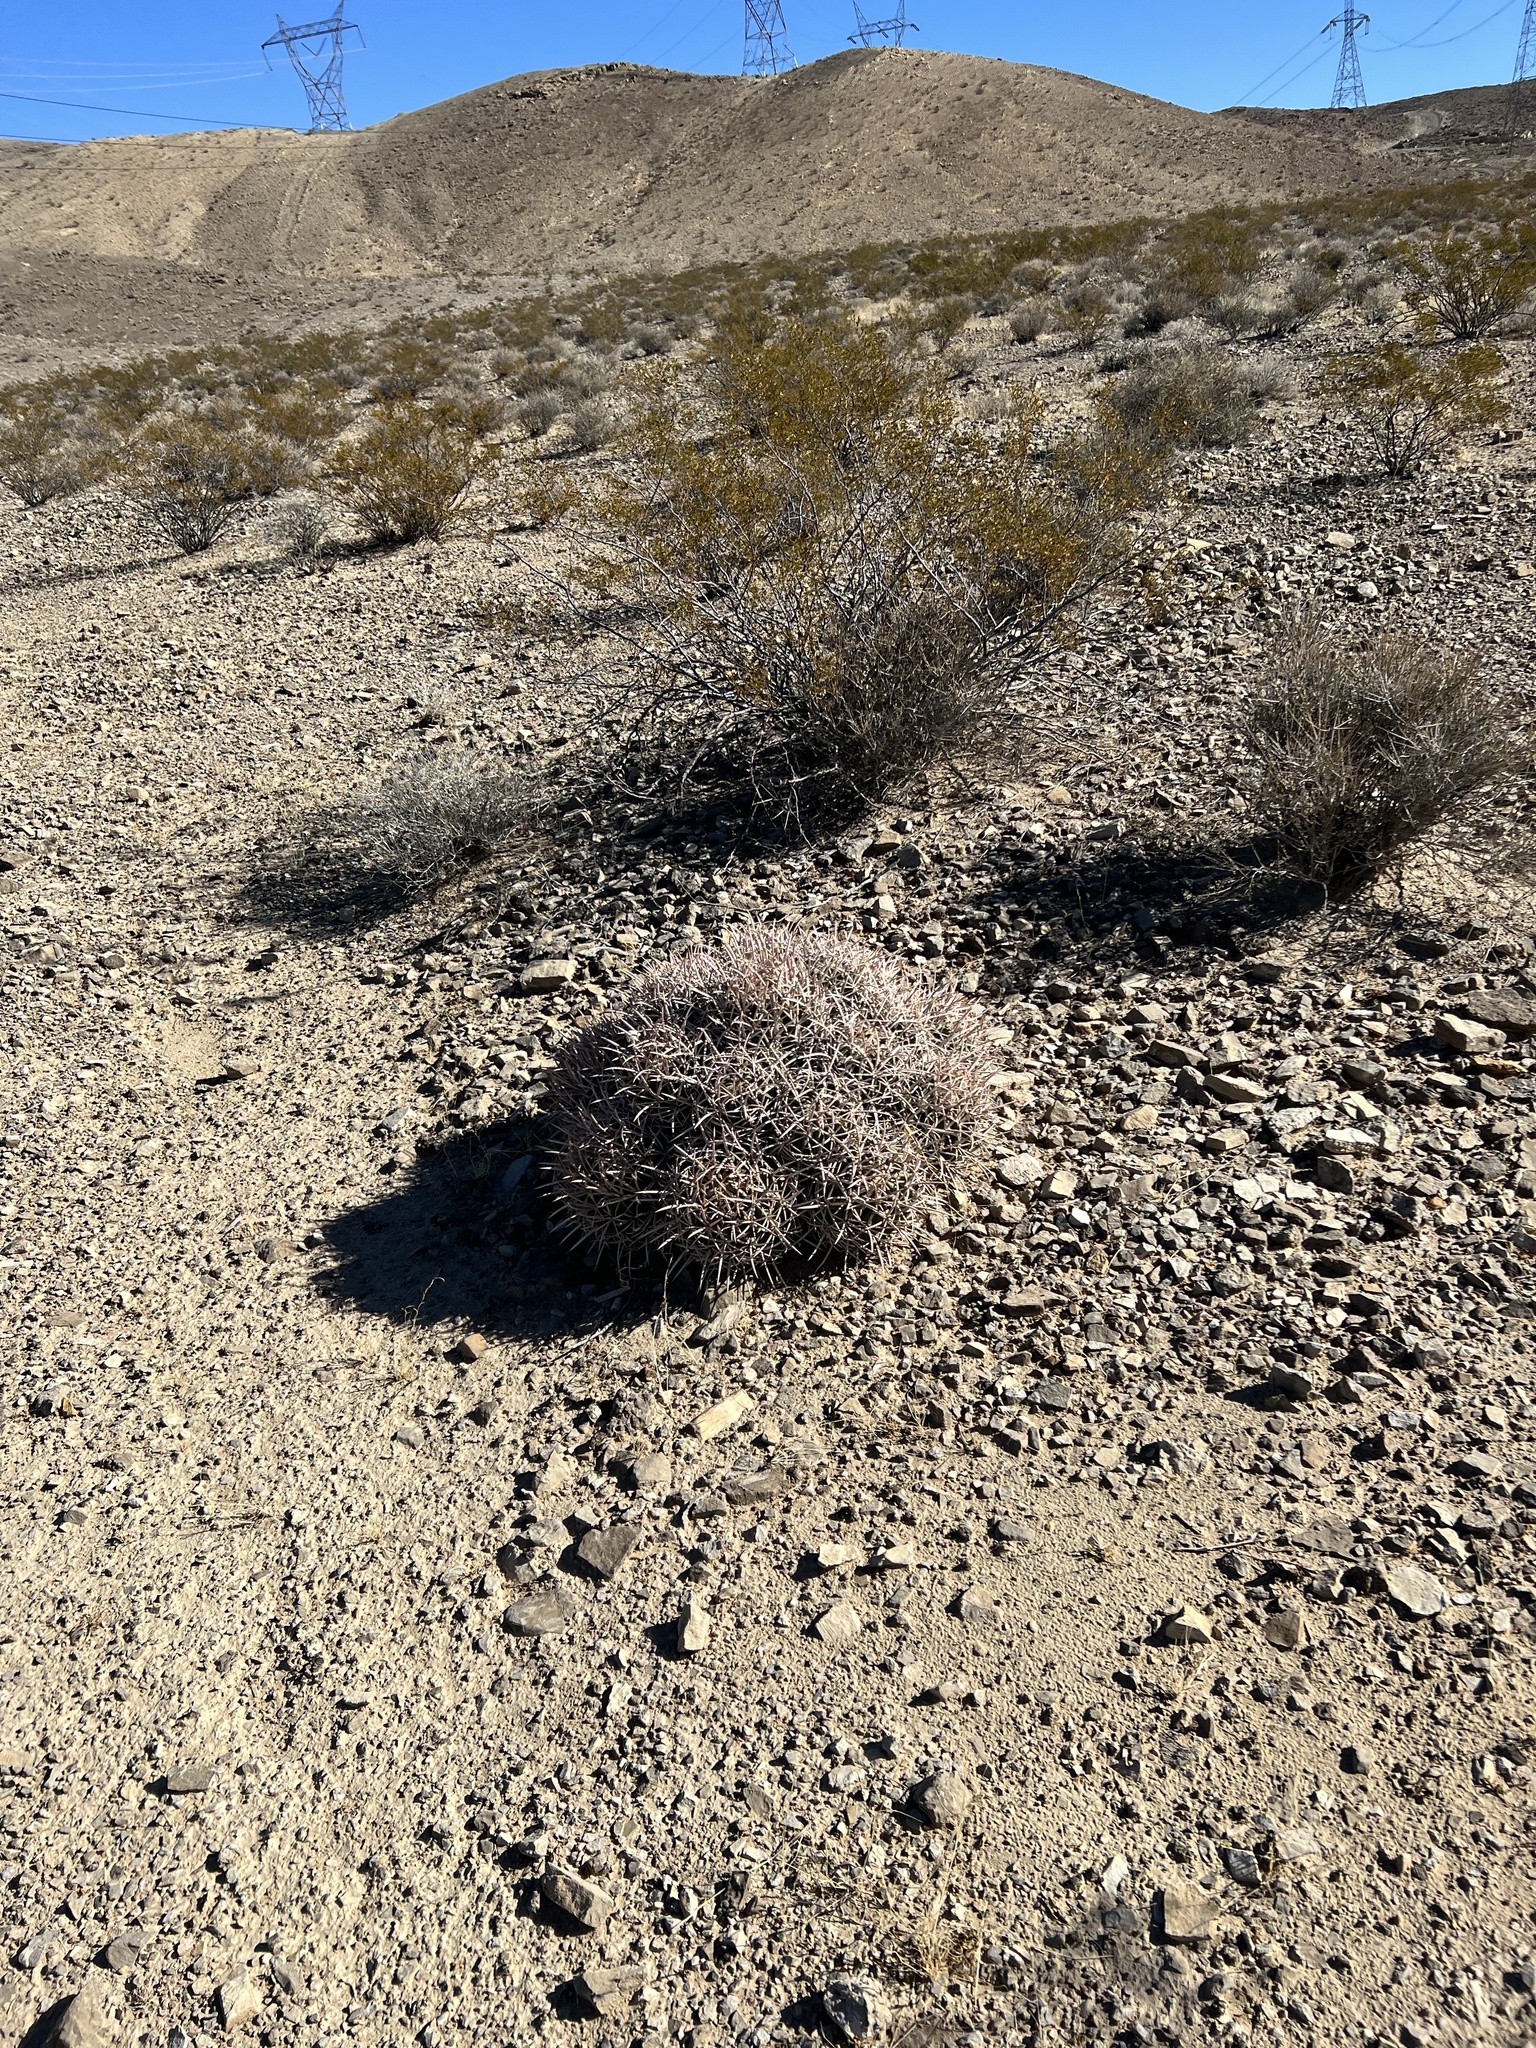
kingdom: Plantae
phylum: Tracheophyta
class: Magnoliopsida
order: Caryophyllales
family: Cactaceae
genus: Echinocactus
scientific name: Echinocactus polycephalus
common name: Cottontop cactus
